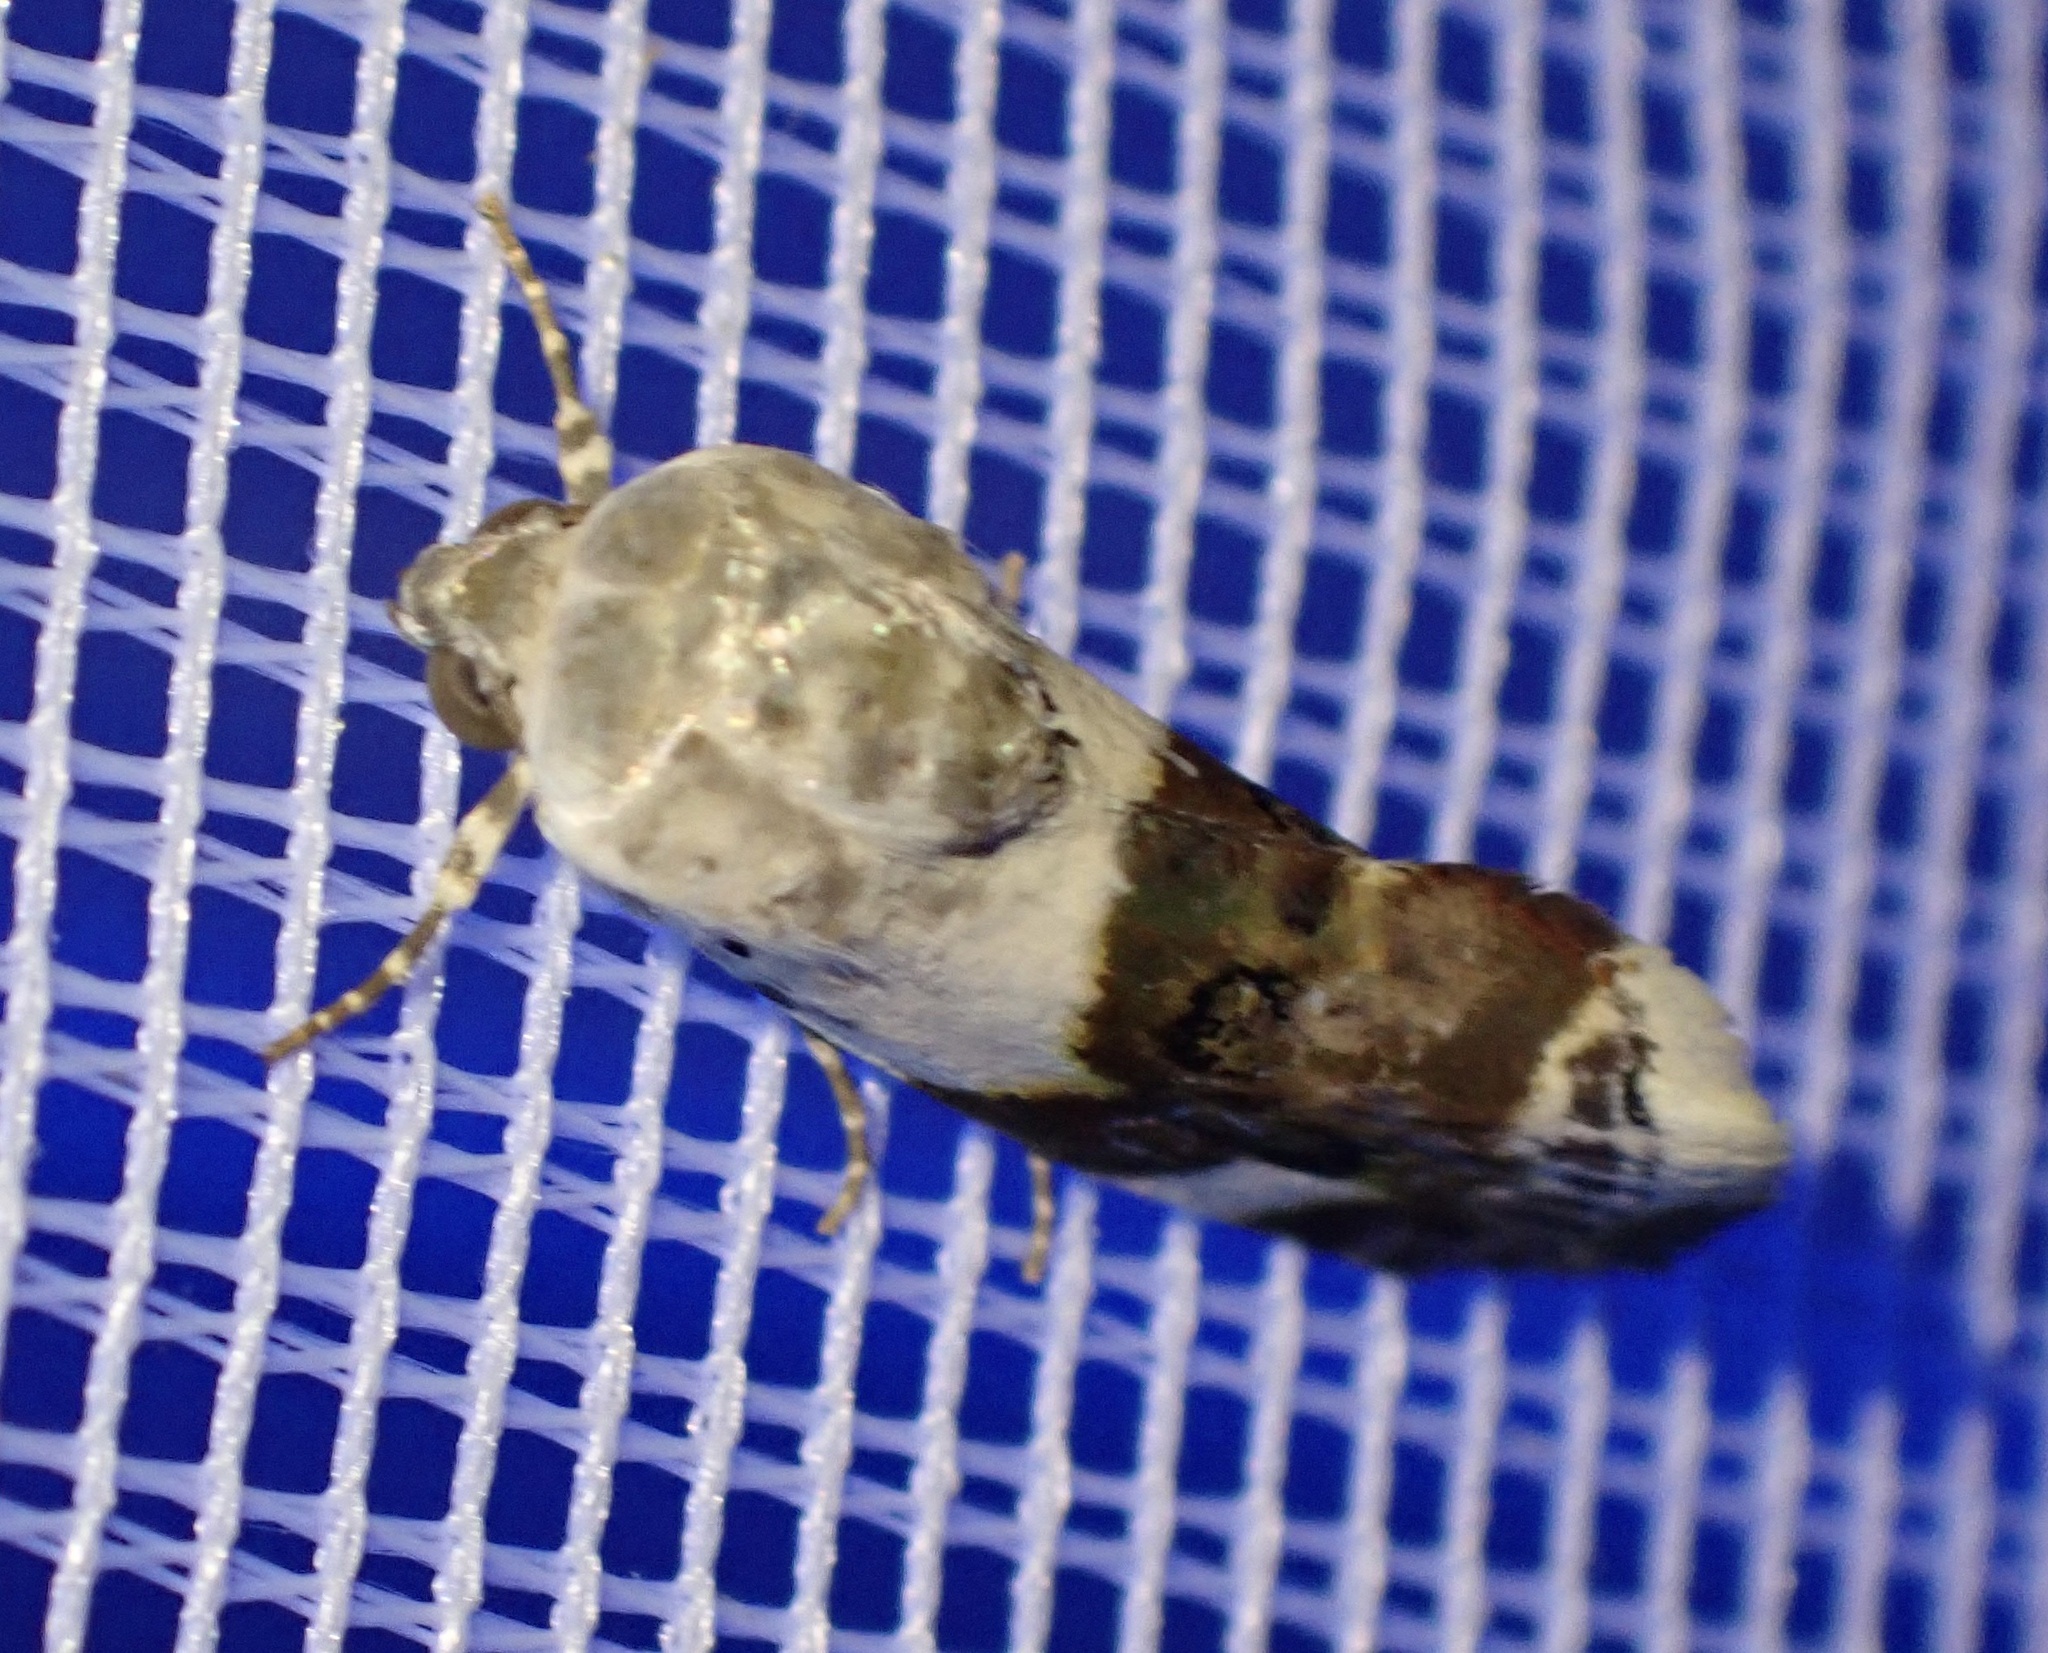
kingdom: Animalia
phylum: Arthropoda
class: Insecta
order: Lepidoptera
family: Noctuidae
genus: Acontia
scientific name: Acontia lucida
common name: Pale shoulder
